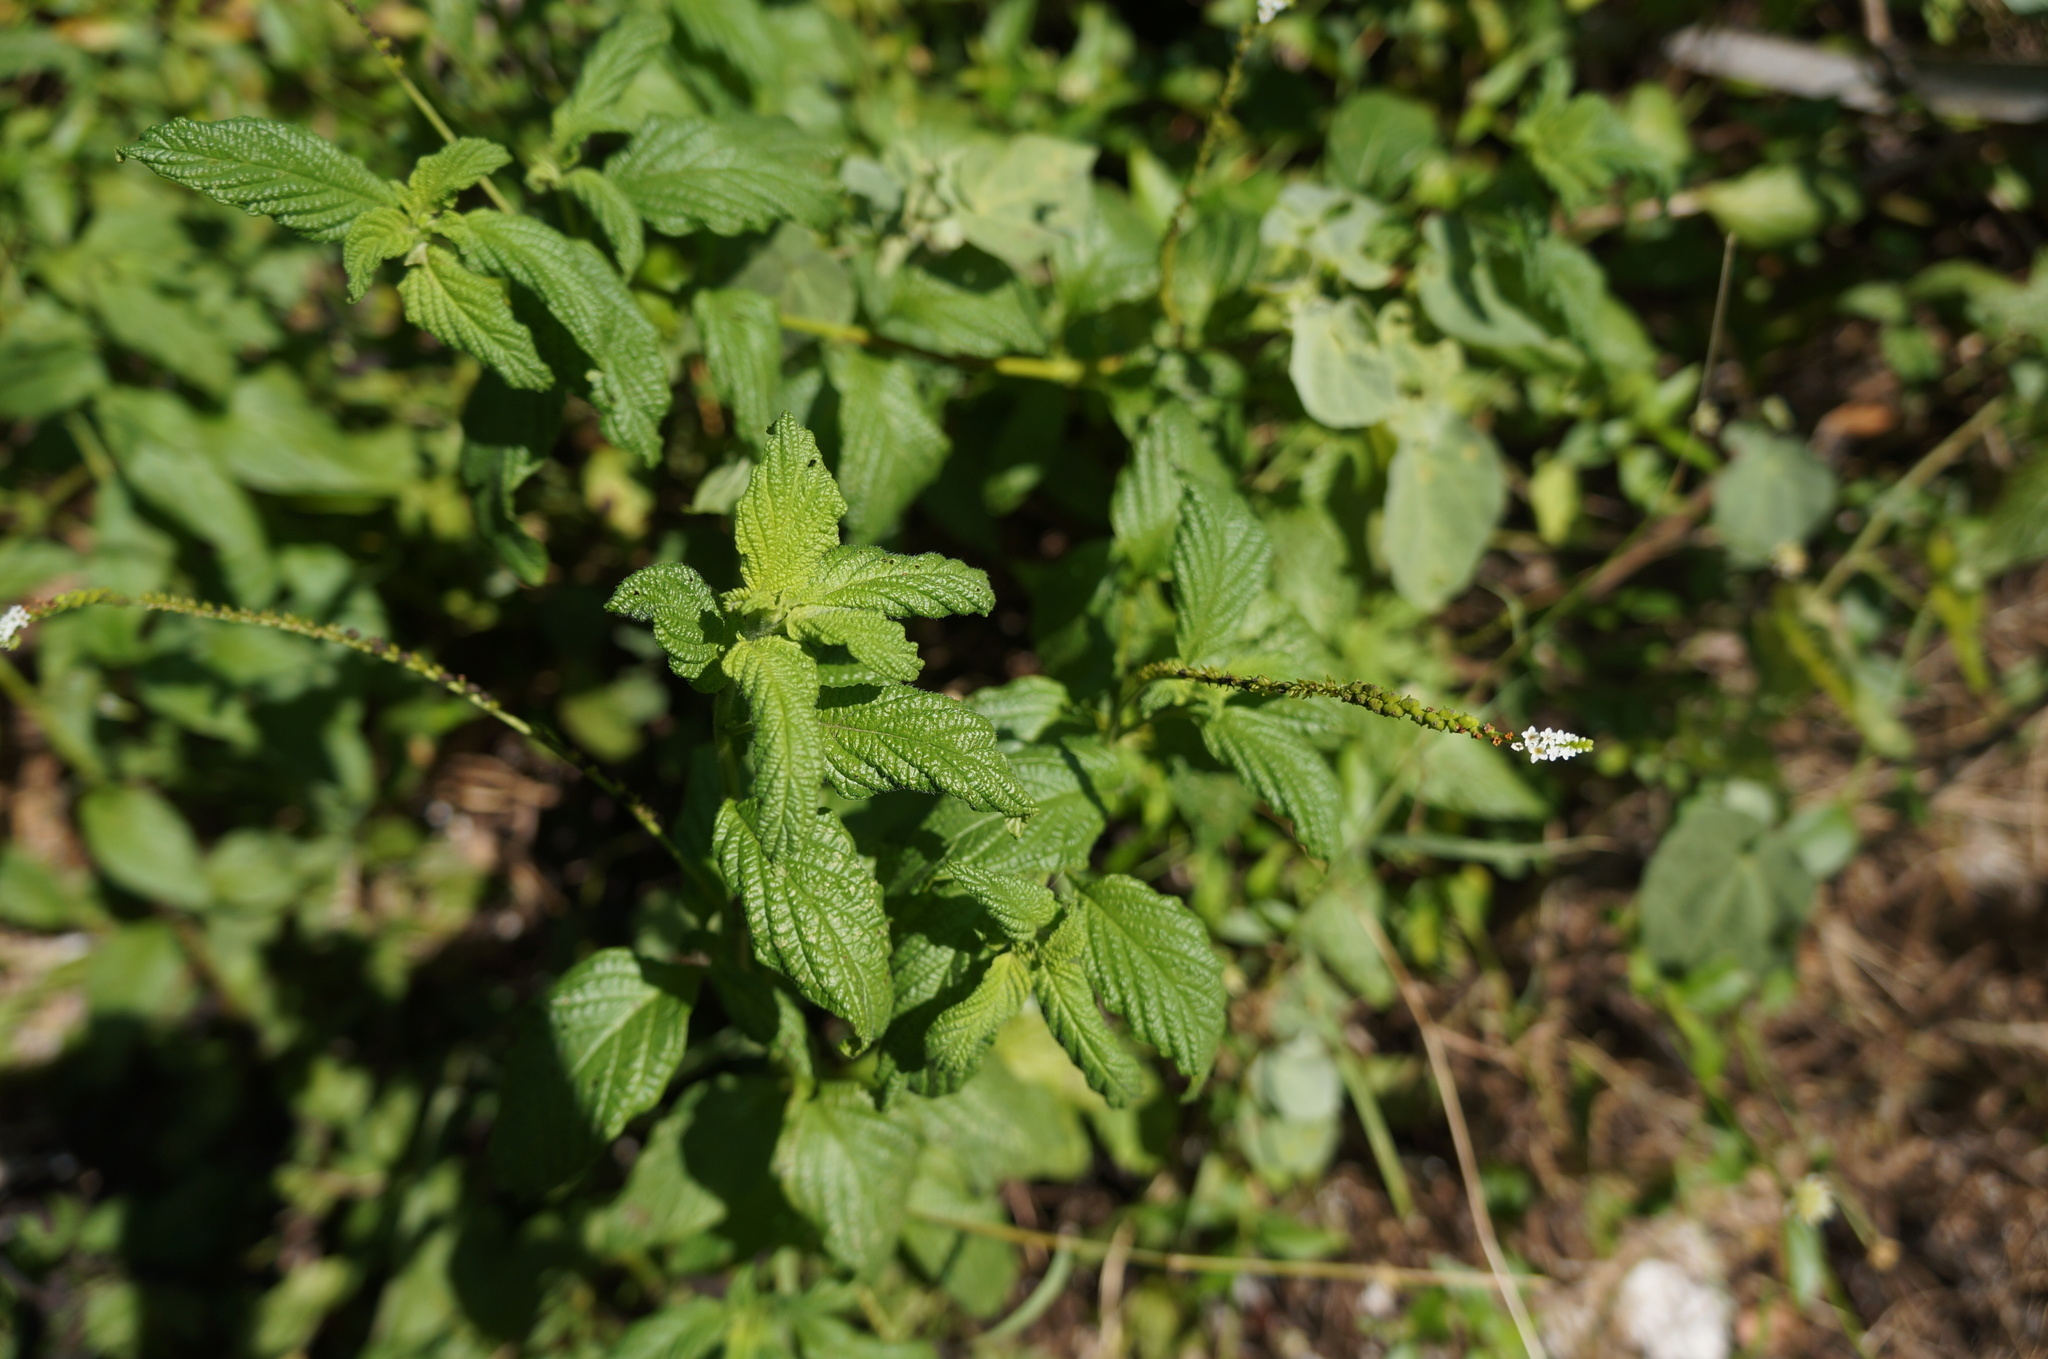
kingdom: Plantae
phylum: Tracheophyta
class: Magnoliopsida
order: Boraginales
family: Heliotropiaceae
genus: Heliotropium
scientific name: Heliotropium angiospermum
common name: Eye bright
